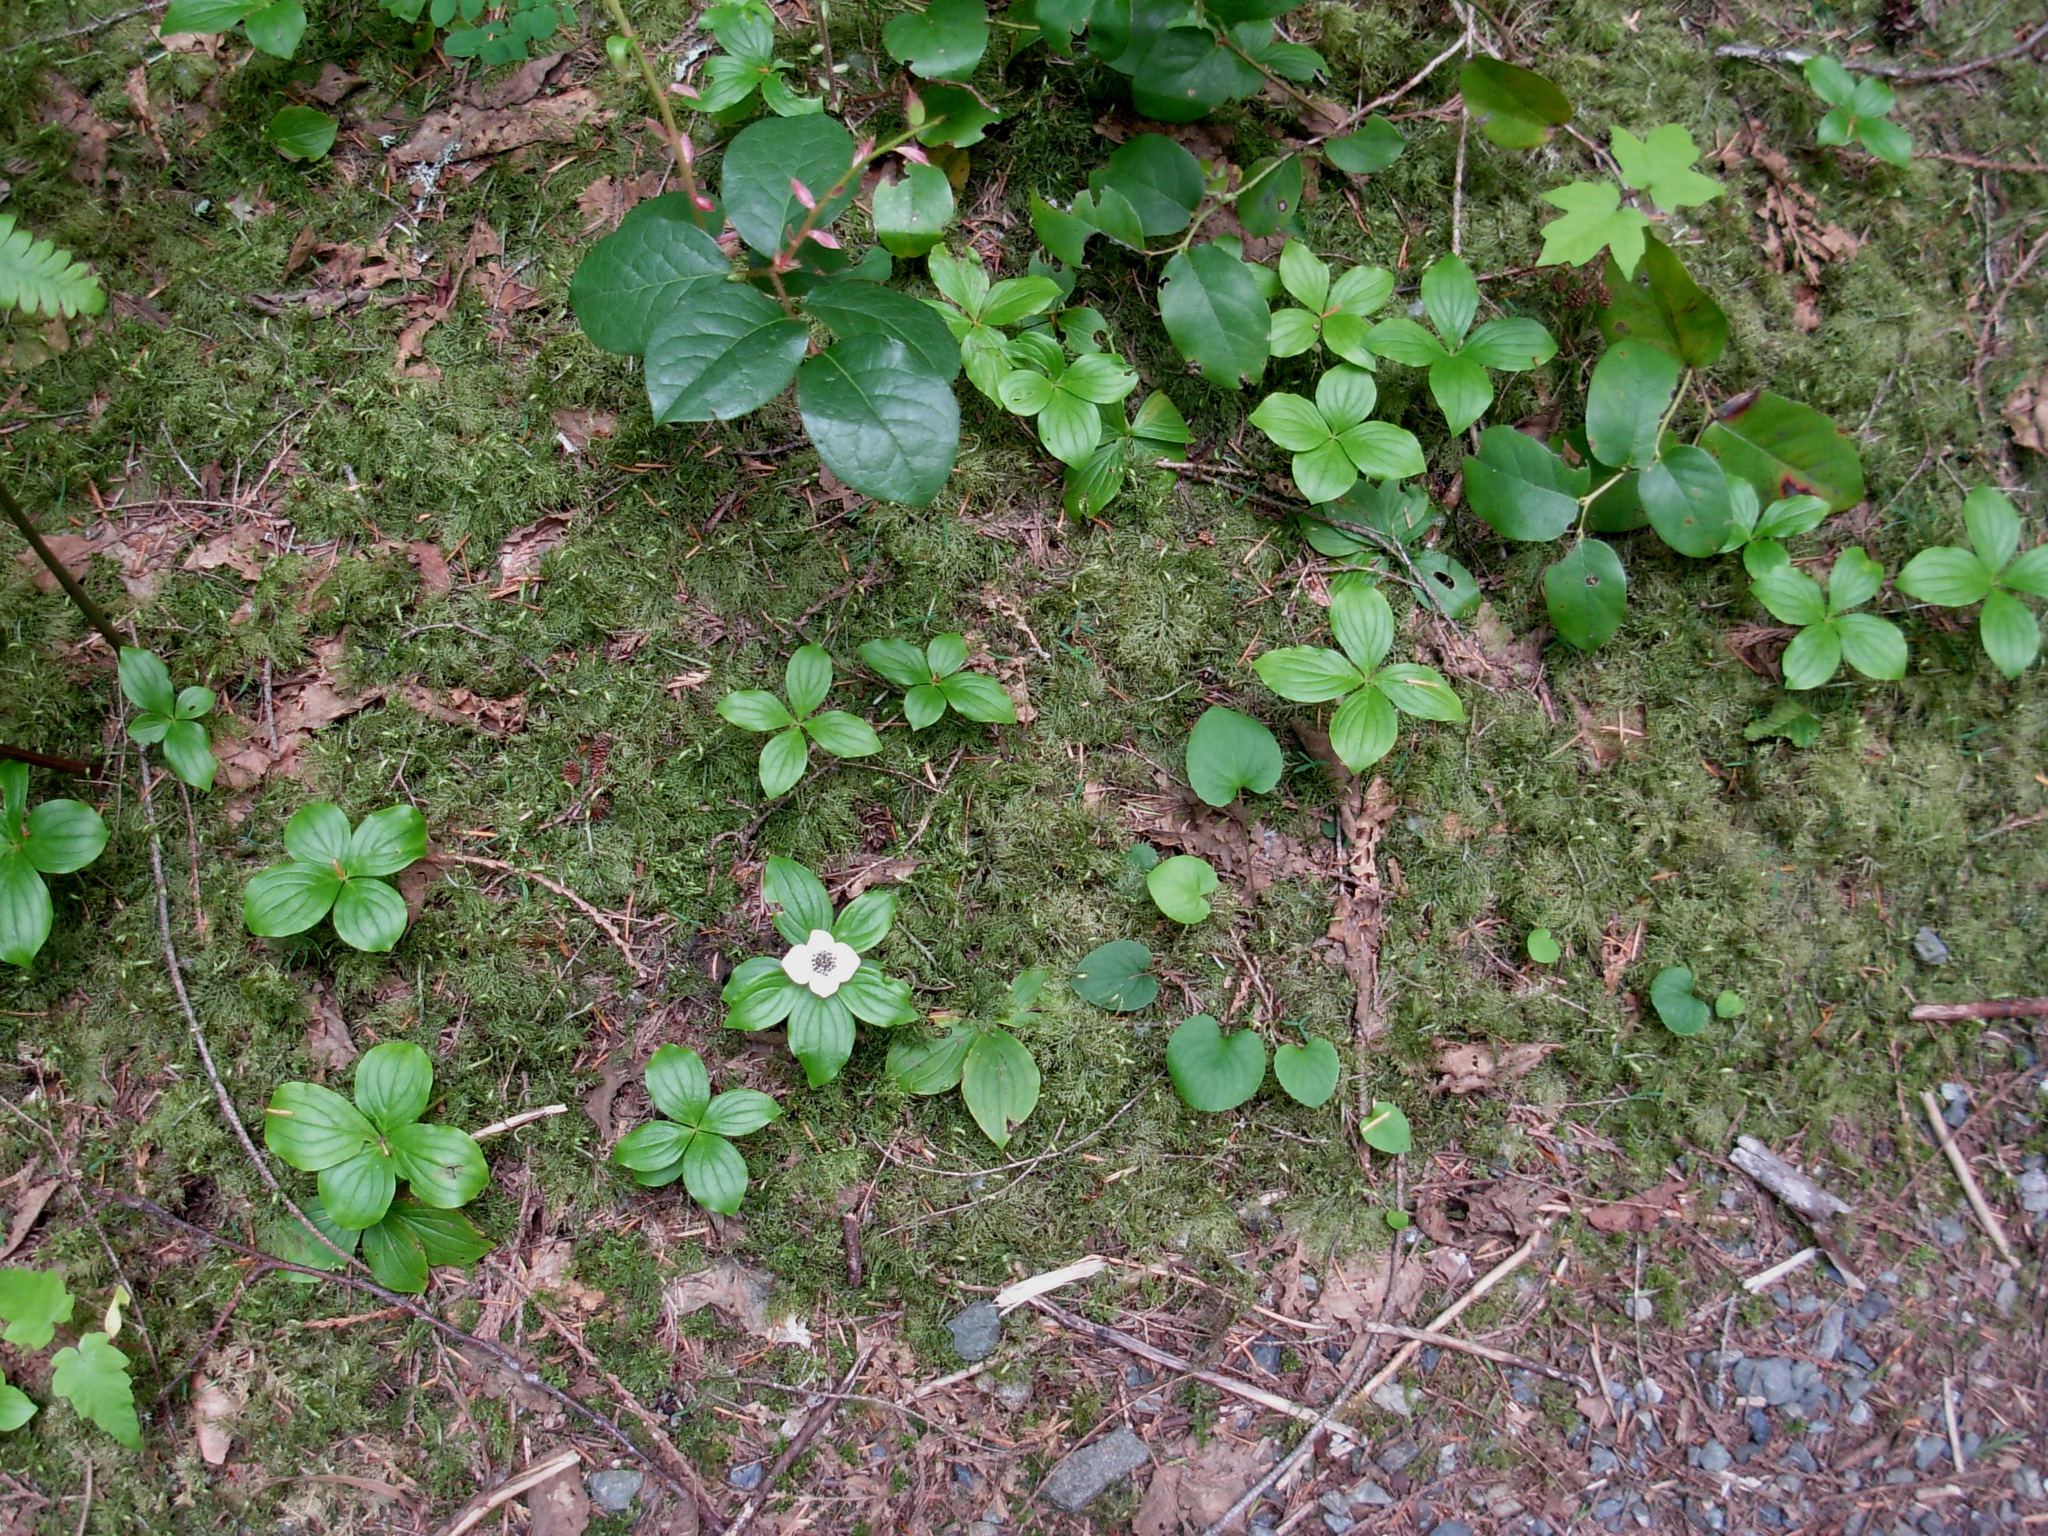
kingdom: Plantae
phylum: Tracheophyta
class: Magnoliopsida
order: Cornales
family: Cornaceae
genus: Cornus
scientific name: Cornus unalaschkensis
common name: Alaska bunchberry
